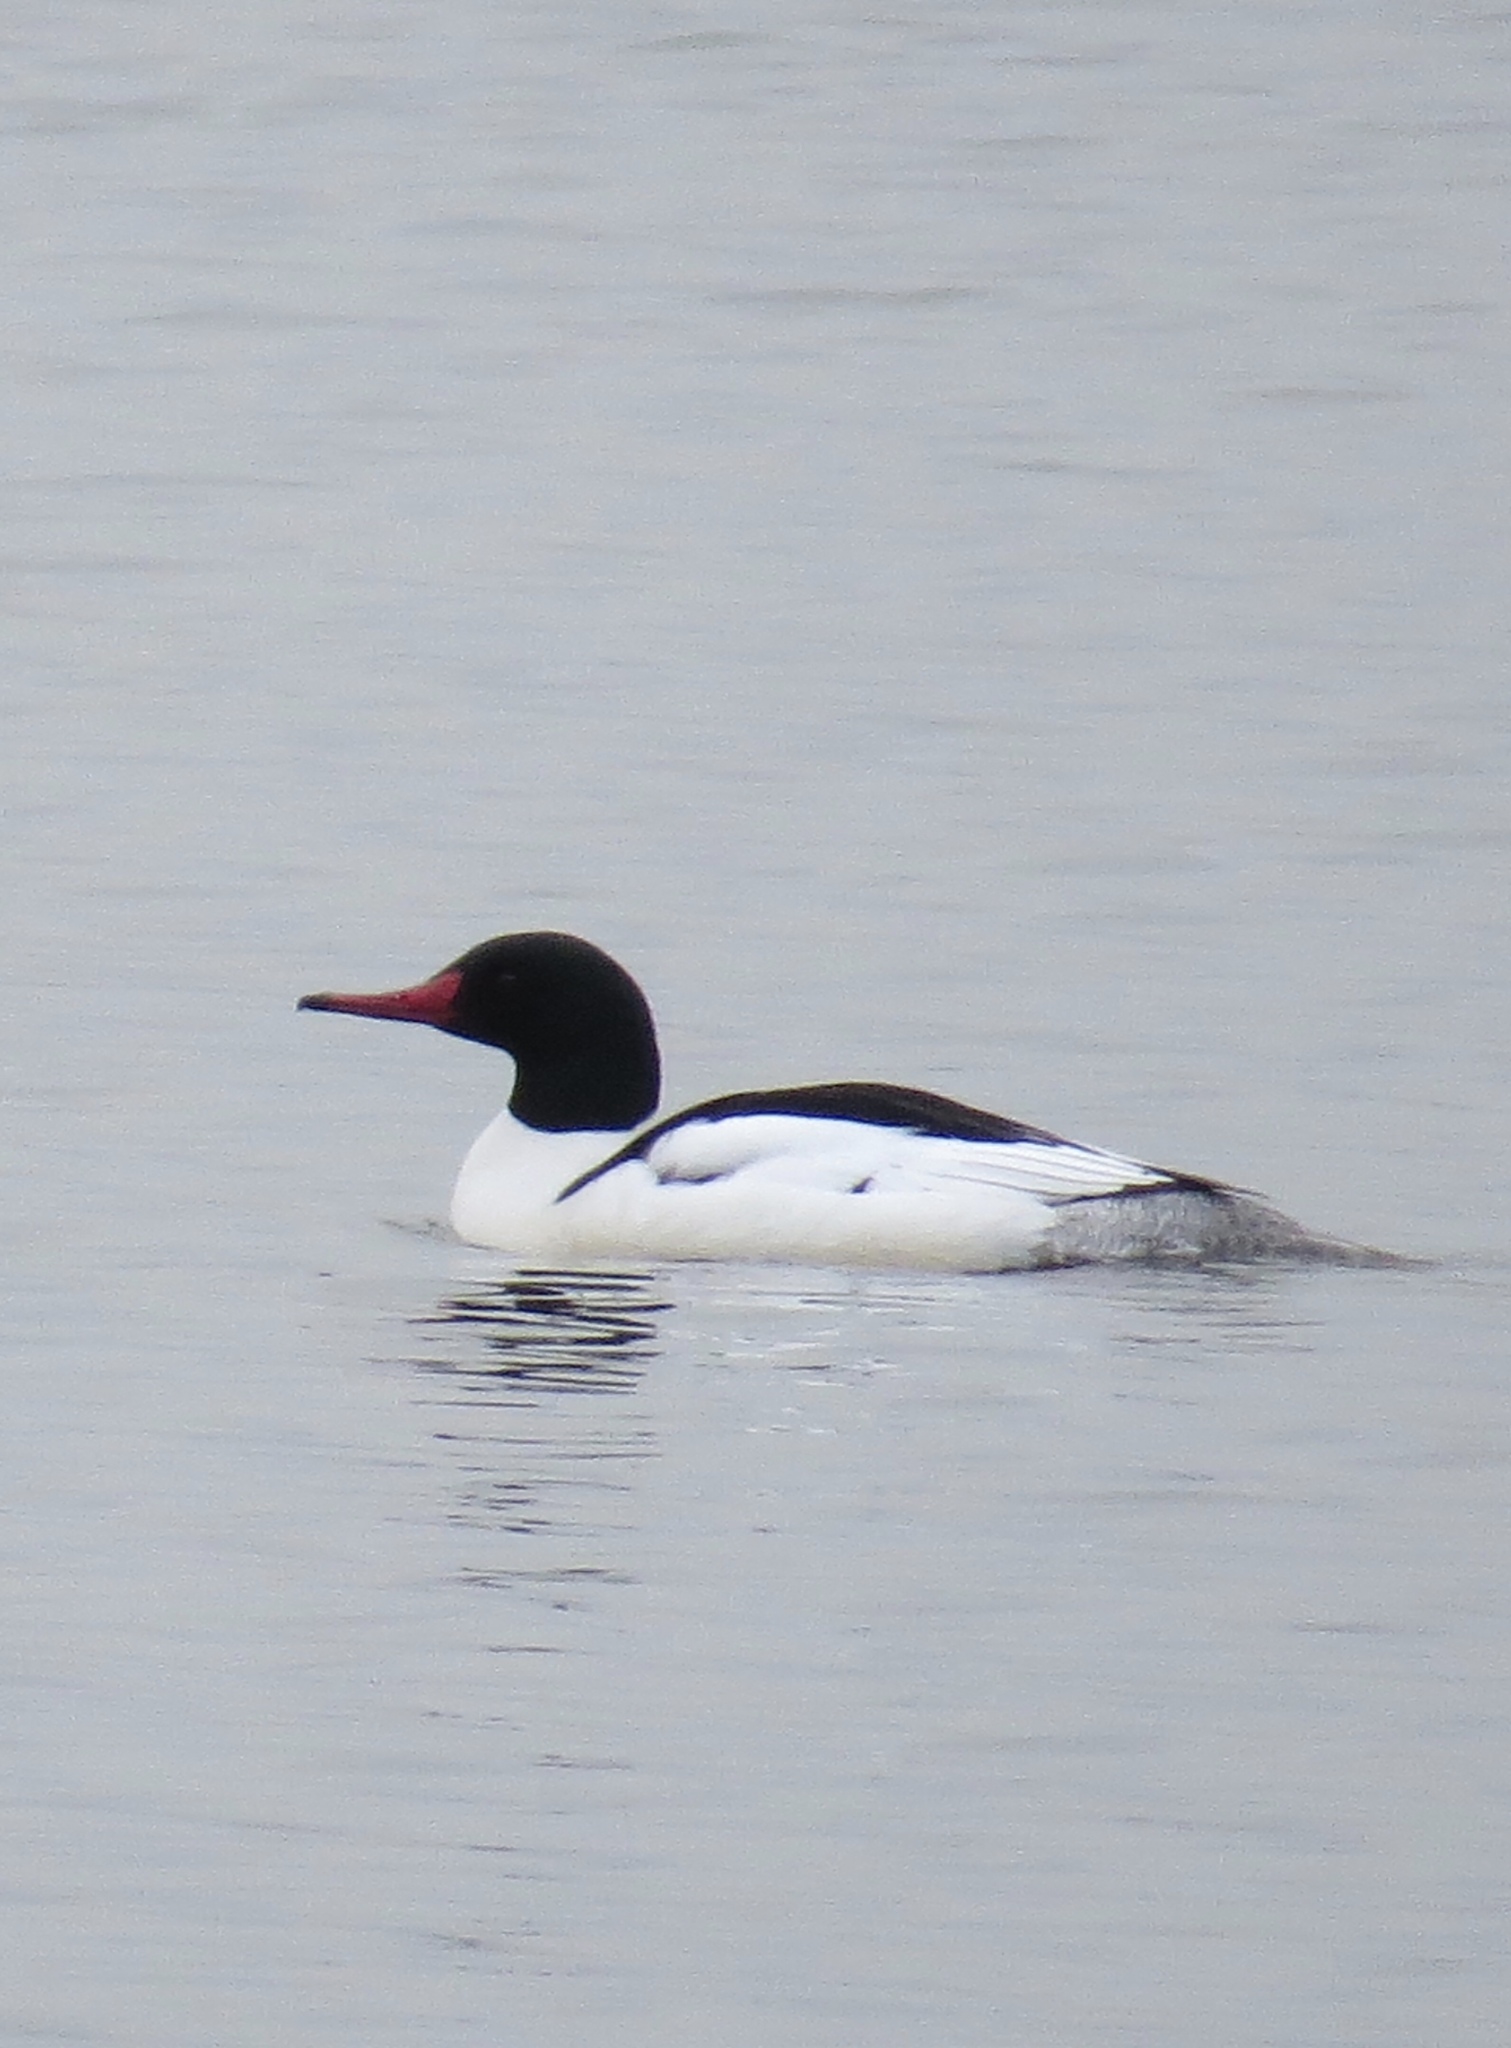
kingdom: Animalia
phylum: Chordata
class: Aves
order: Anseriformes
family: Anatidae
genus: Mergus
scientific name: Mergus merganser
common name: Common merganser
